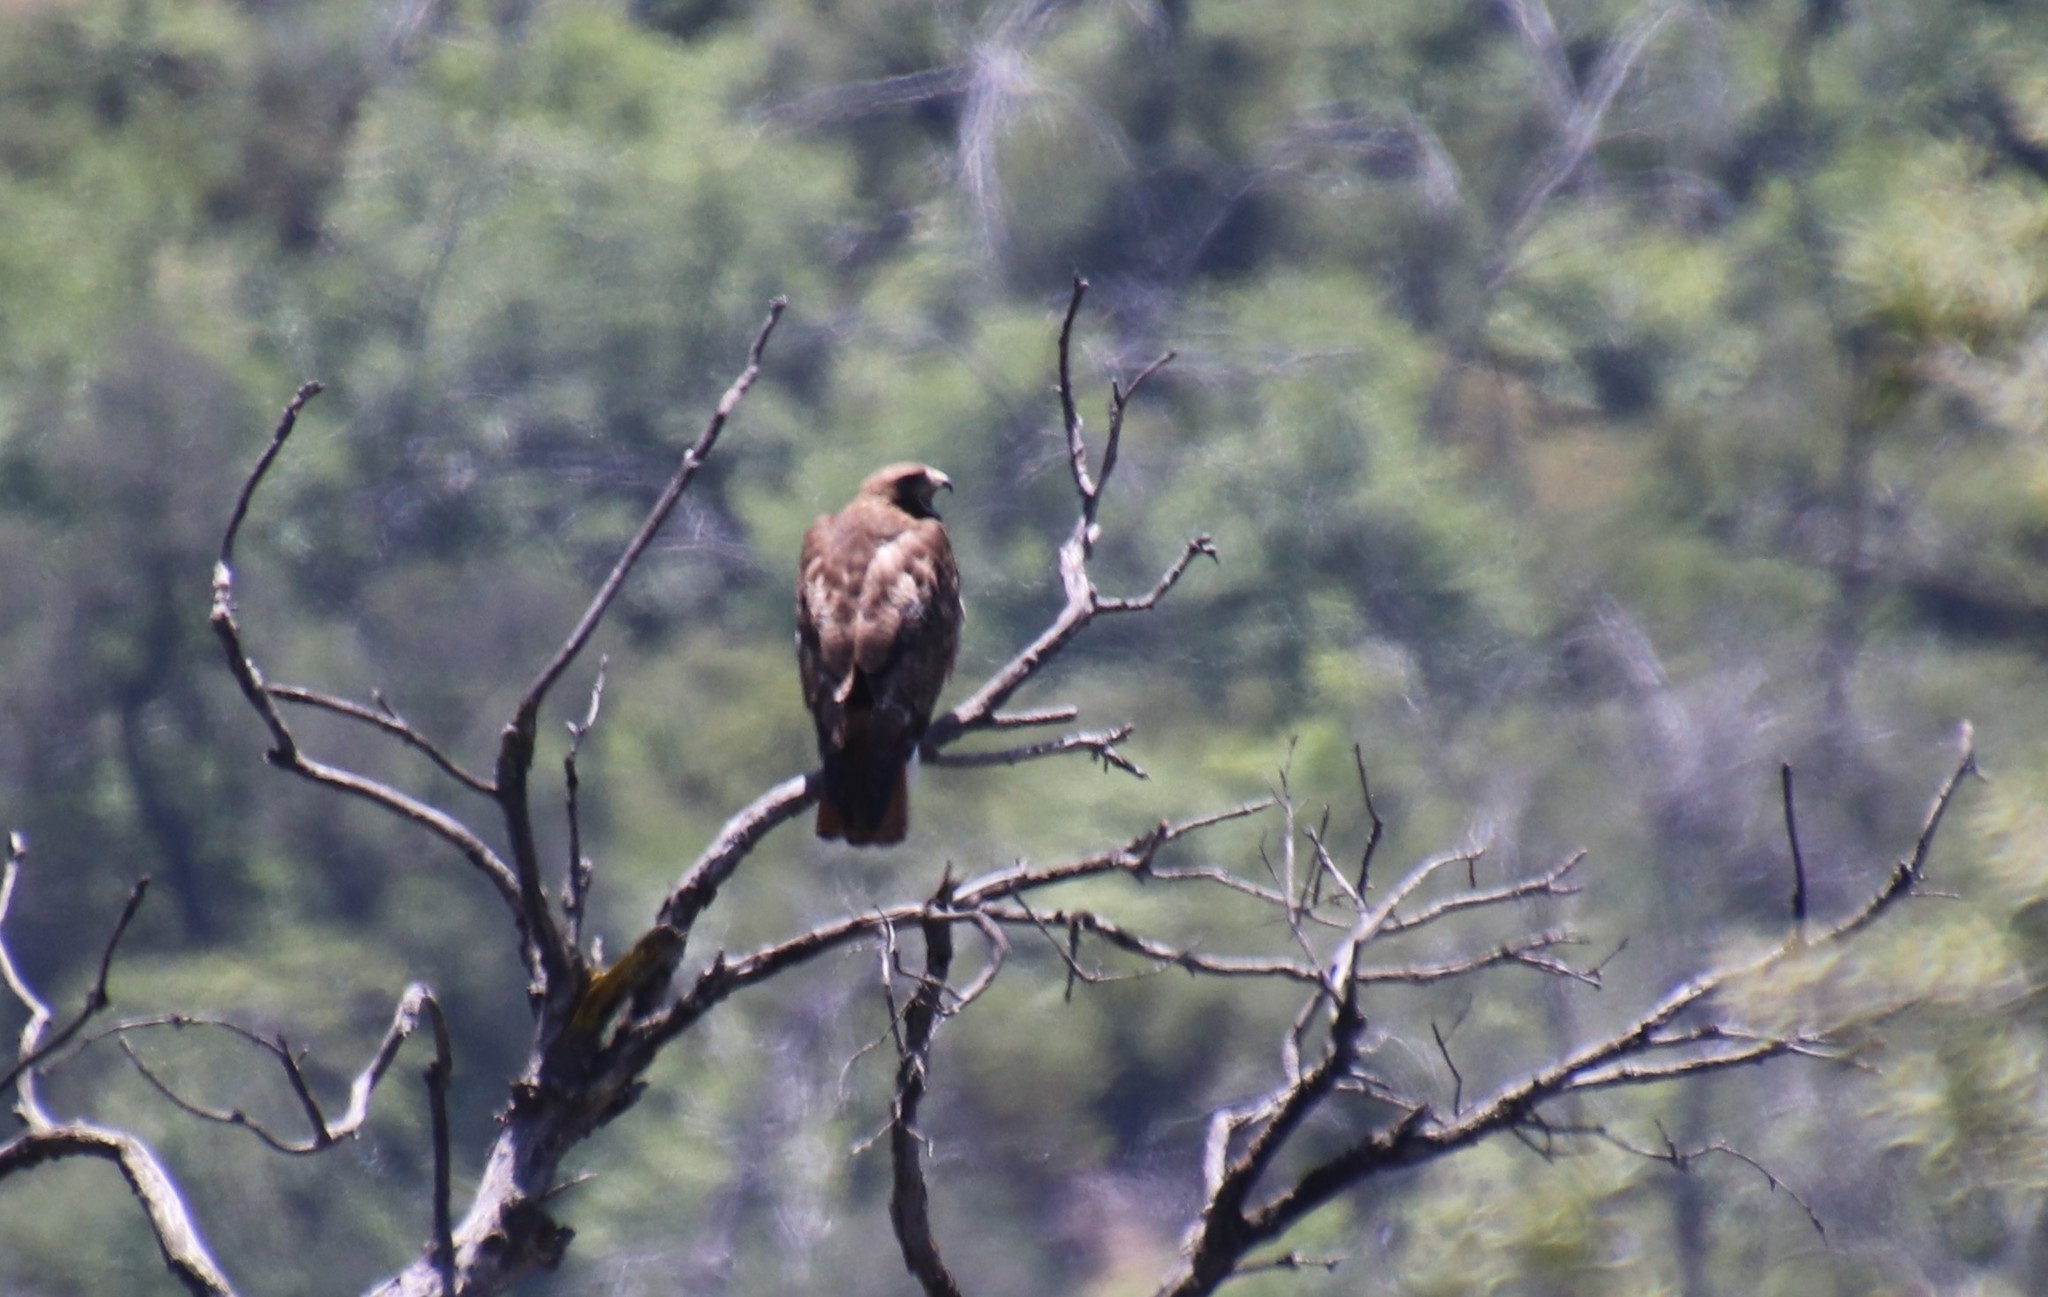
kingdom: Animalia
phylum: Chordata
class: Aves
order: Accipitriformes
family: Accipitridae
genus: Buteo
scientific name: Buteo jamaicensis
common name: Red-tailed hawk
